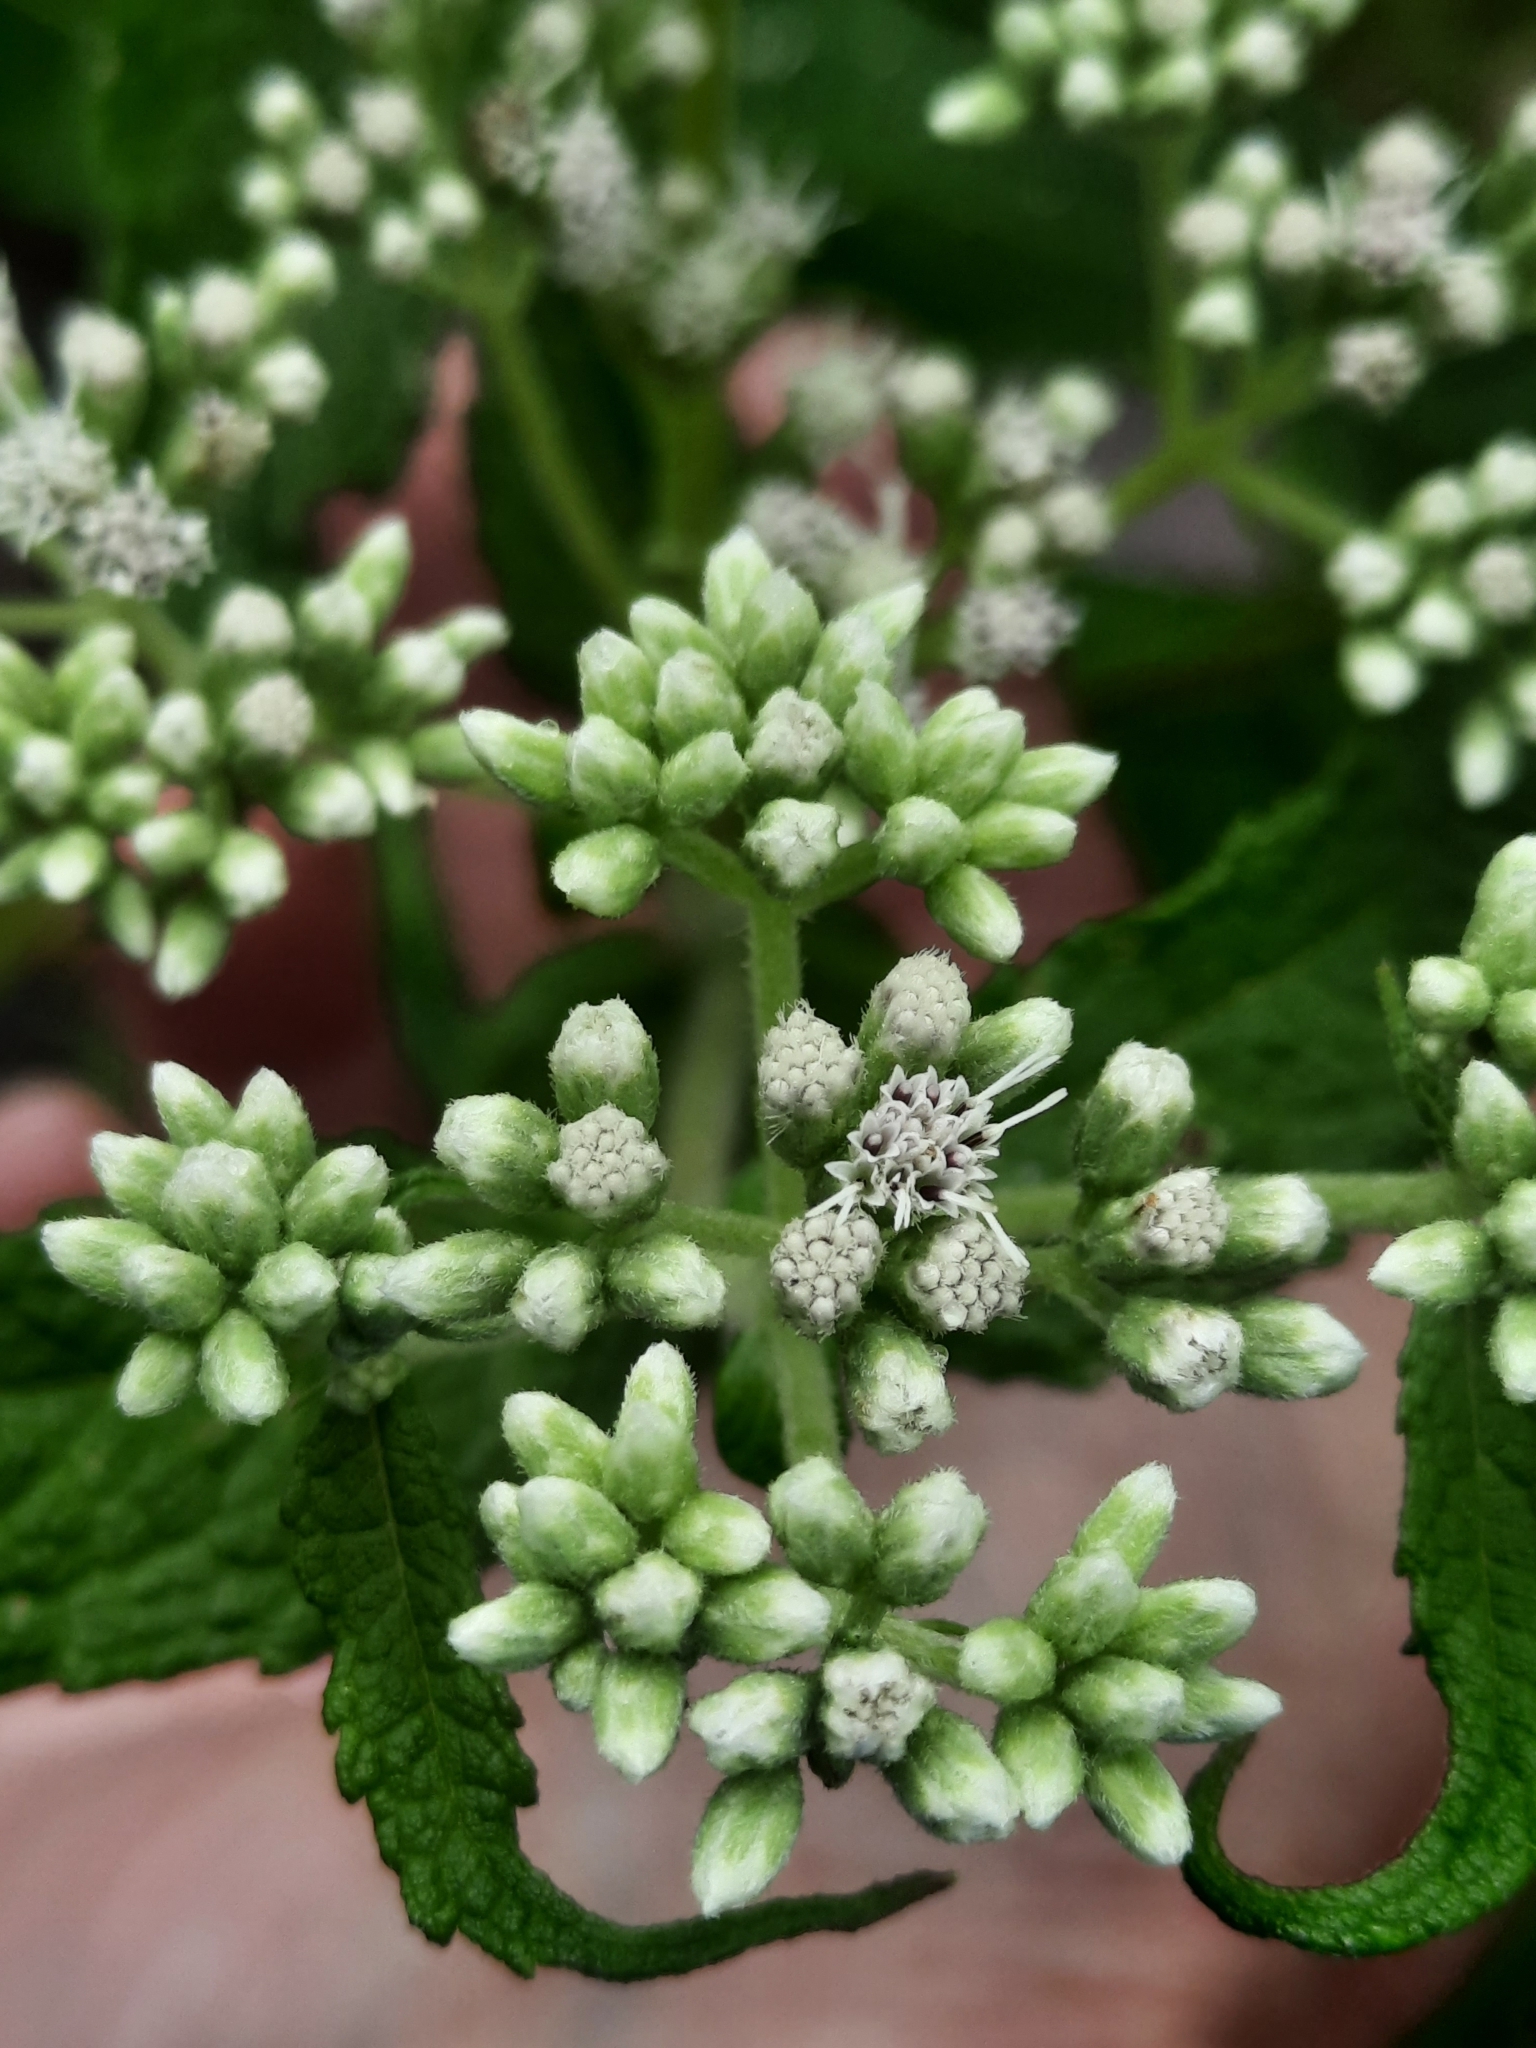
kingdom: Plantae
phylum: Tracheophyta
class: Magnoliopsida
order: Asterales
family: Asteraceae
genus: Eupatorium
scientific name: Eupatorium perfoliatum
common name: Boneset
